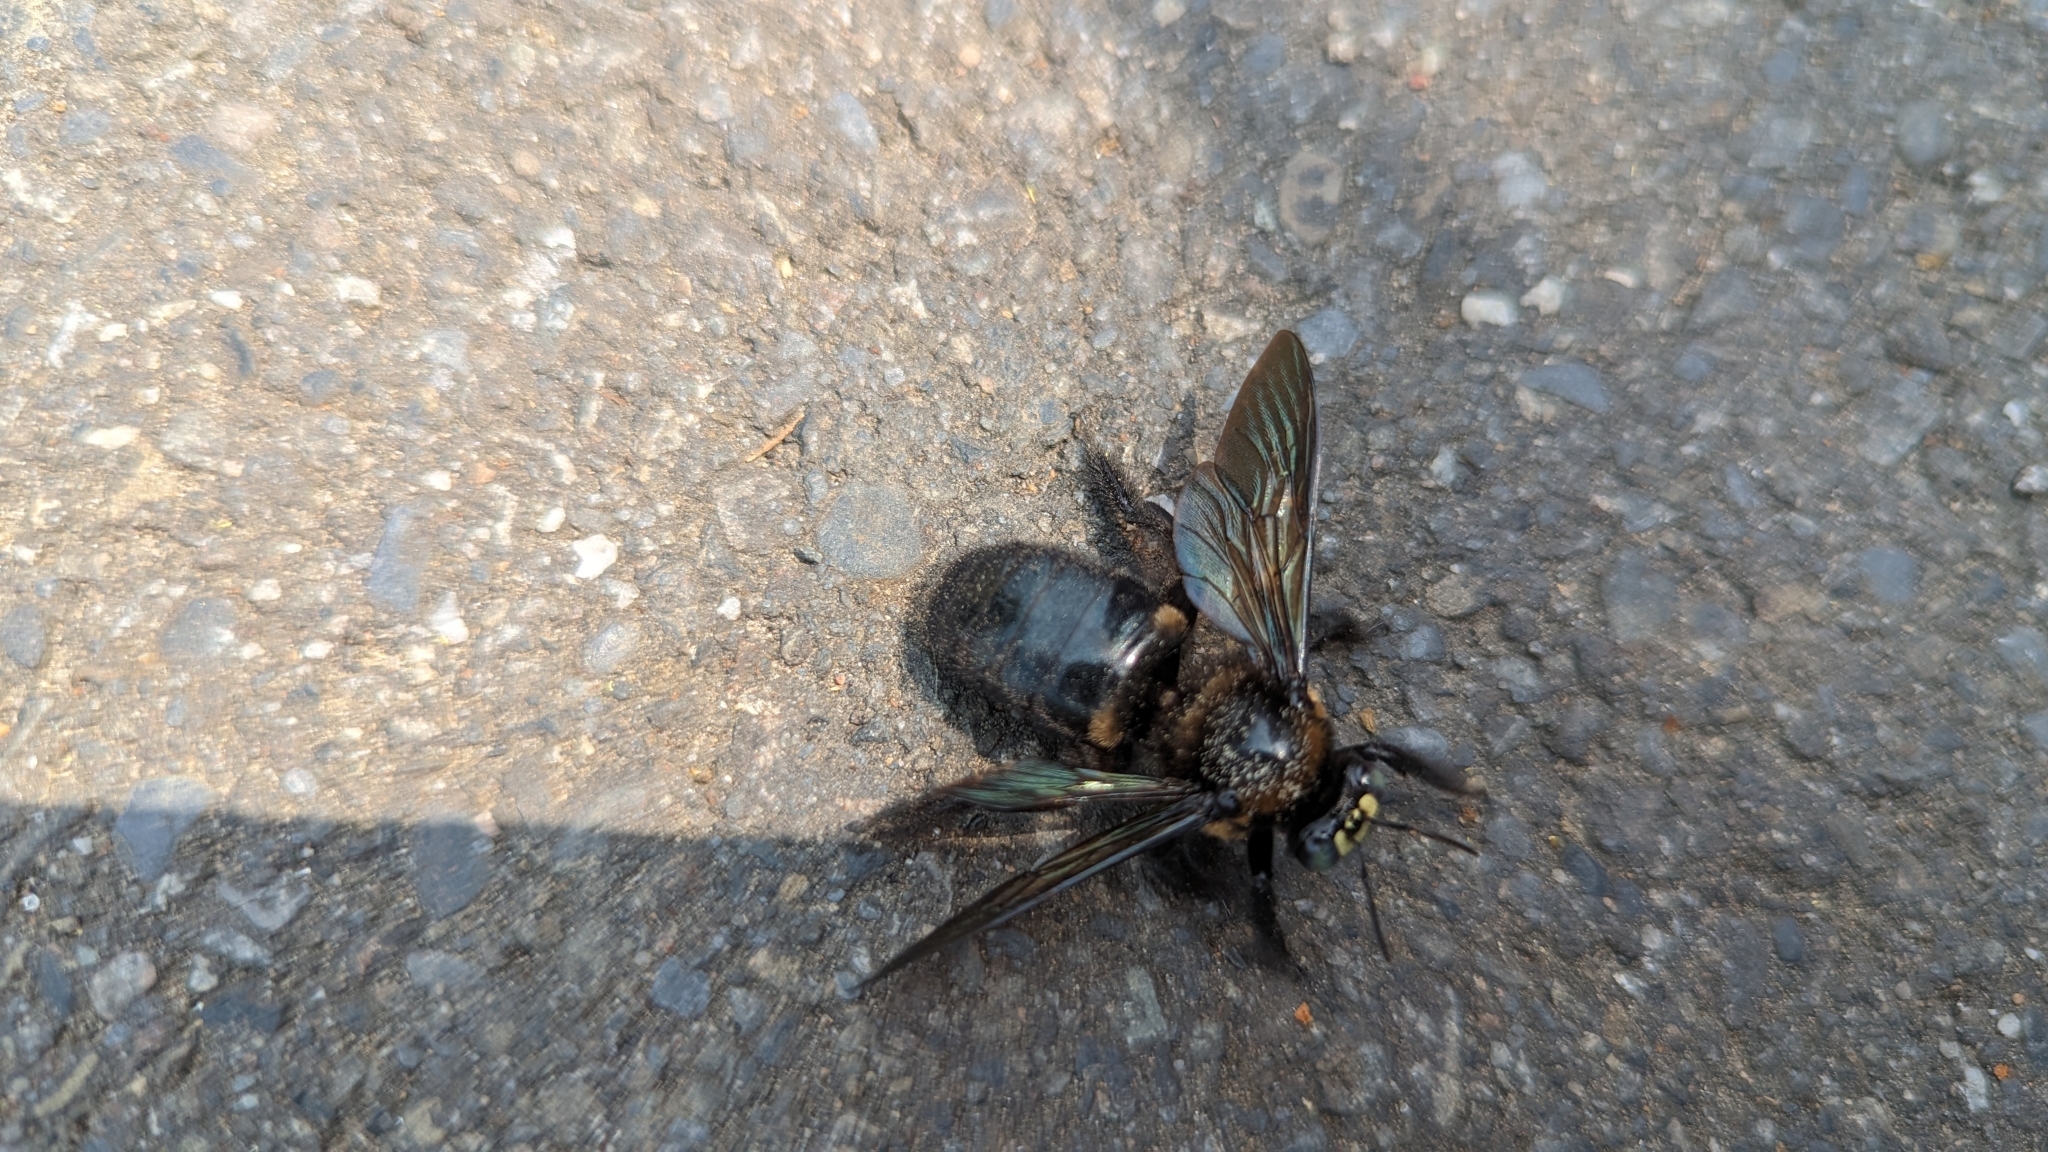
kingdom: Animalia
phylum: Arthropoda
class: Insecta
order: Hymenoptera
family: Apidae
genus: Xylocopa
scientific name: Xylocopa tranquebarorum
